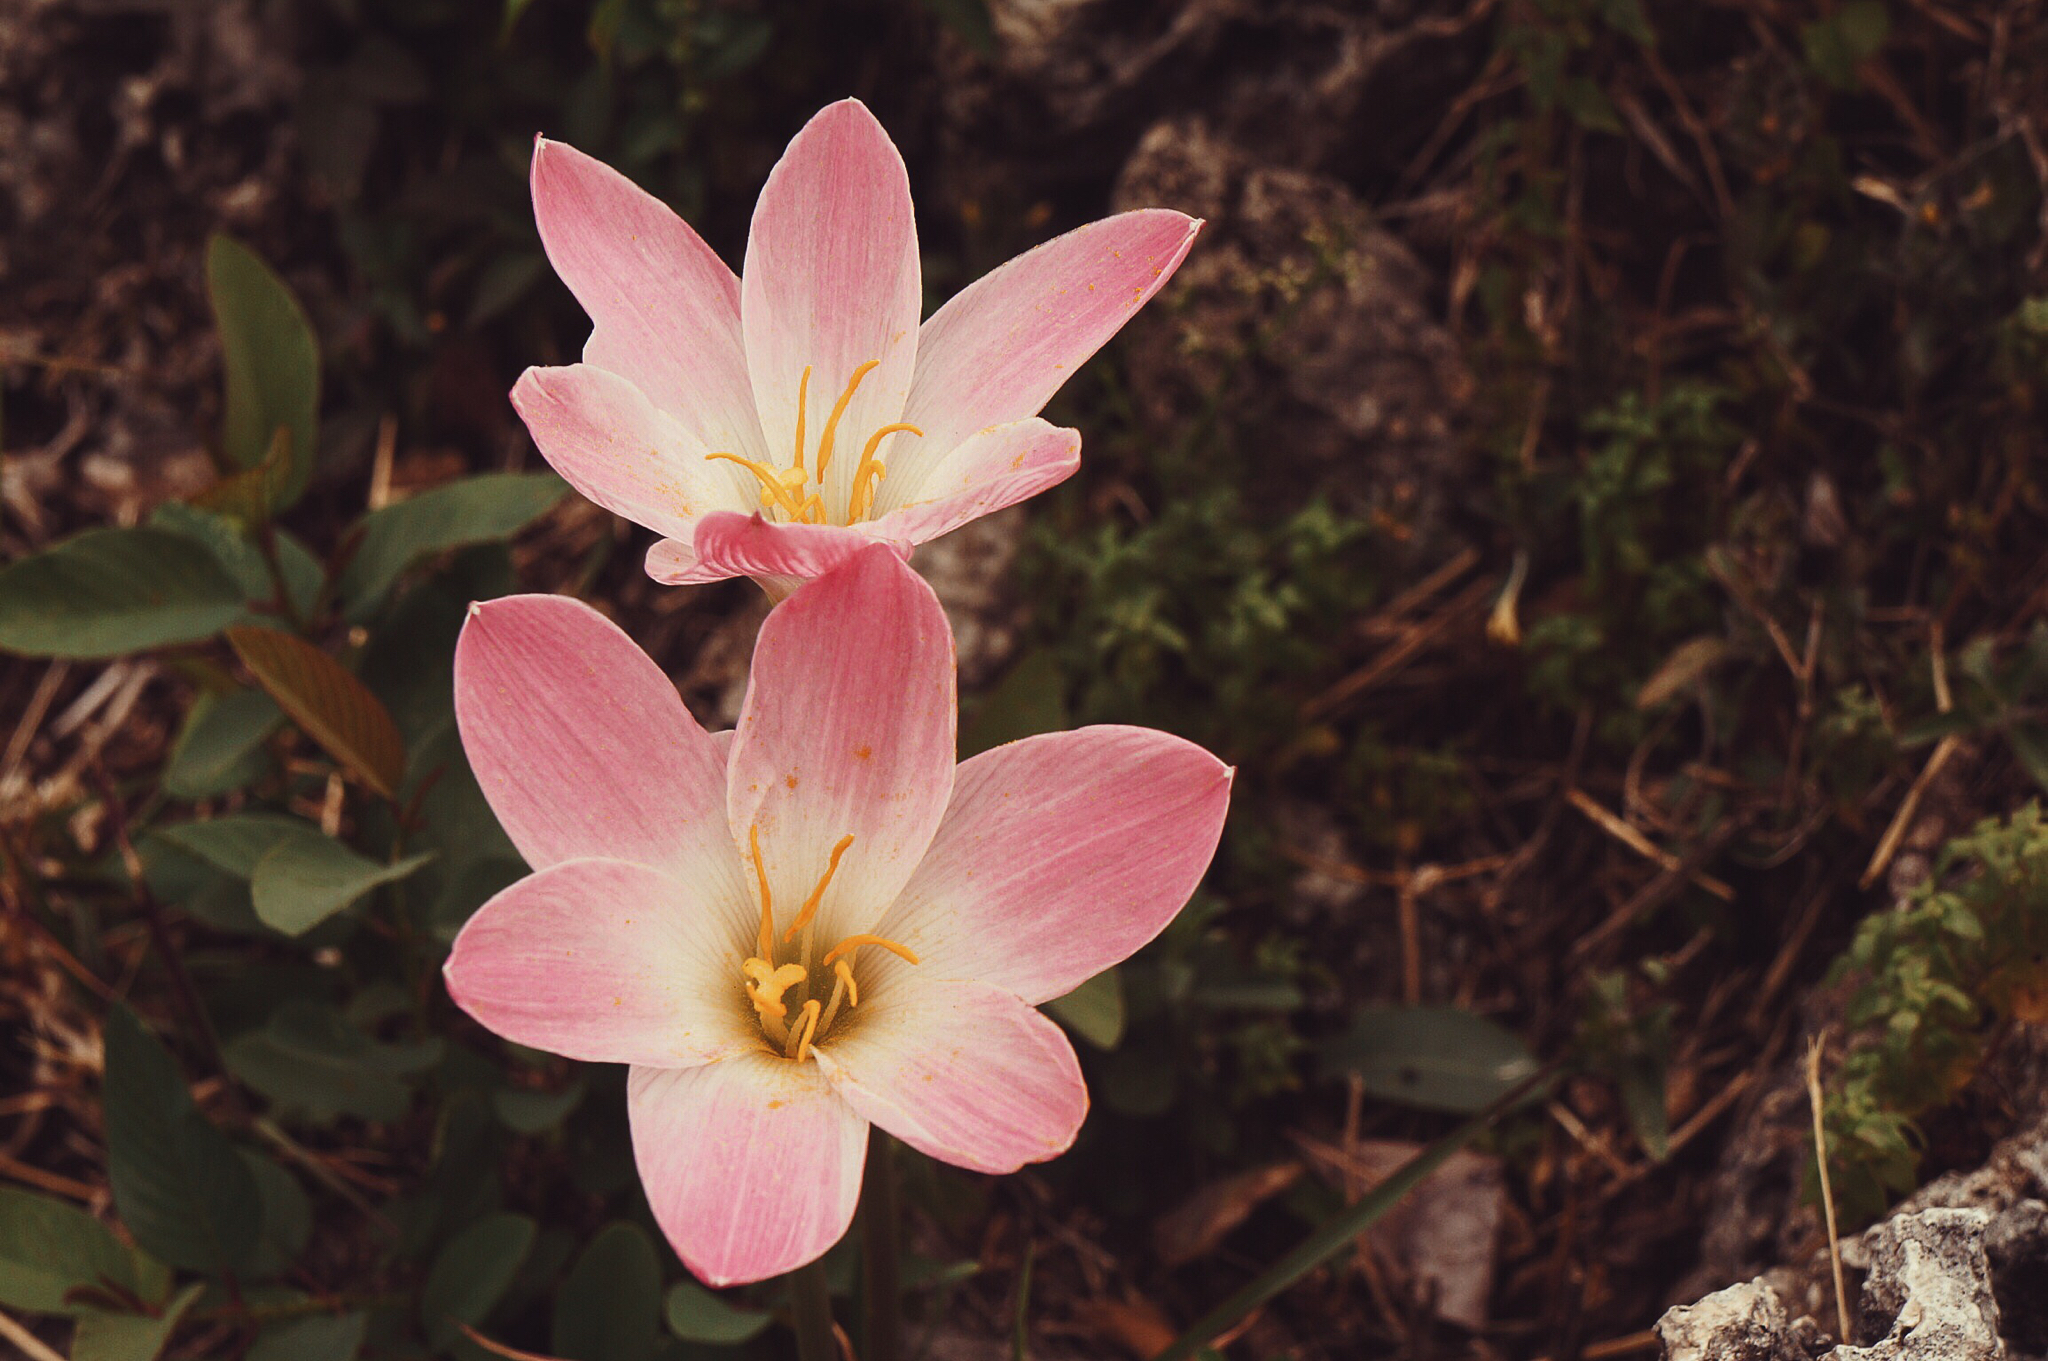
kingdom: Plantae
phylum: Tracheophyta
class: Liliopsida
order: Asparagales
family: Amaryllidaceae
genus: Zephyranthes
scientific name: Zephyranthes carinata
